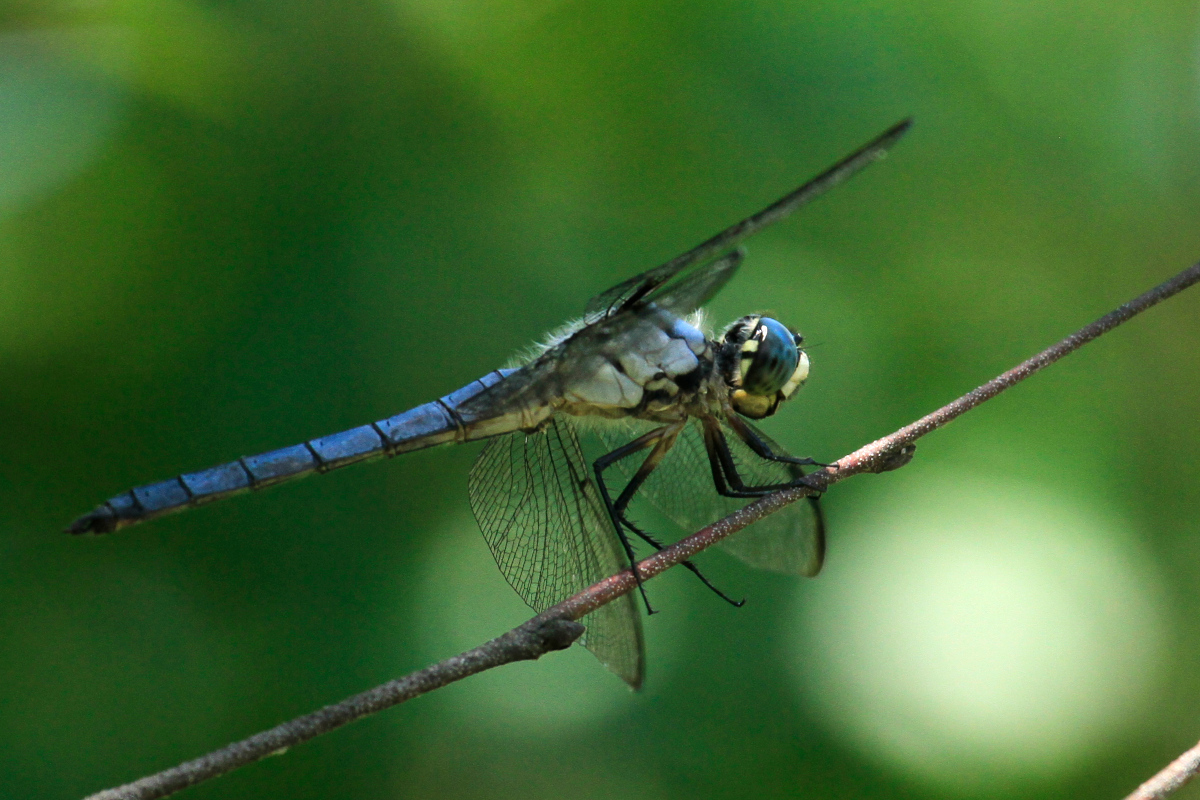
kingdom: Animalia
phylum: Arthropoda
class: Insecta
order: Odonata
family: Libellulidae
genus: Libellula
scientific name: Libellula vibrans
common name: Great blue skimmer
